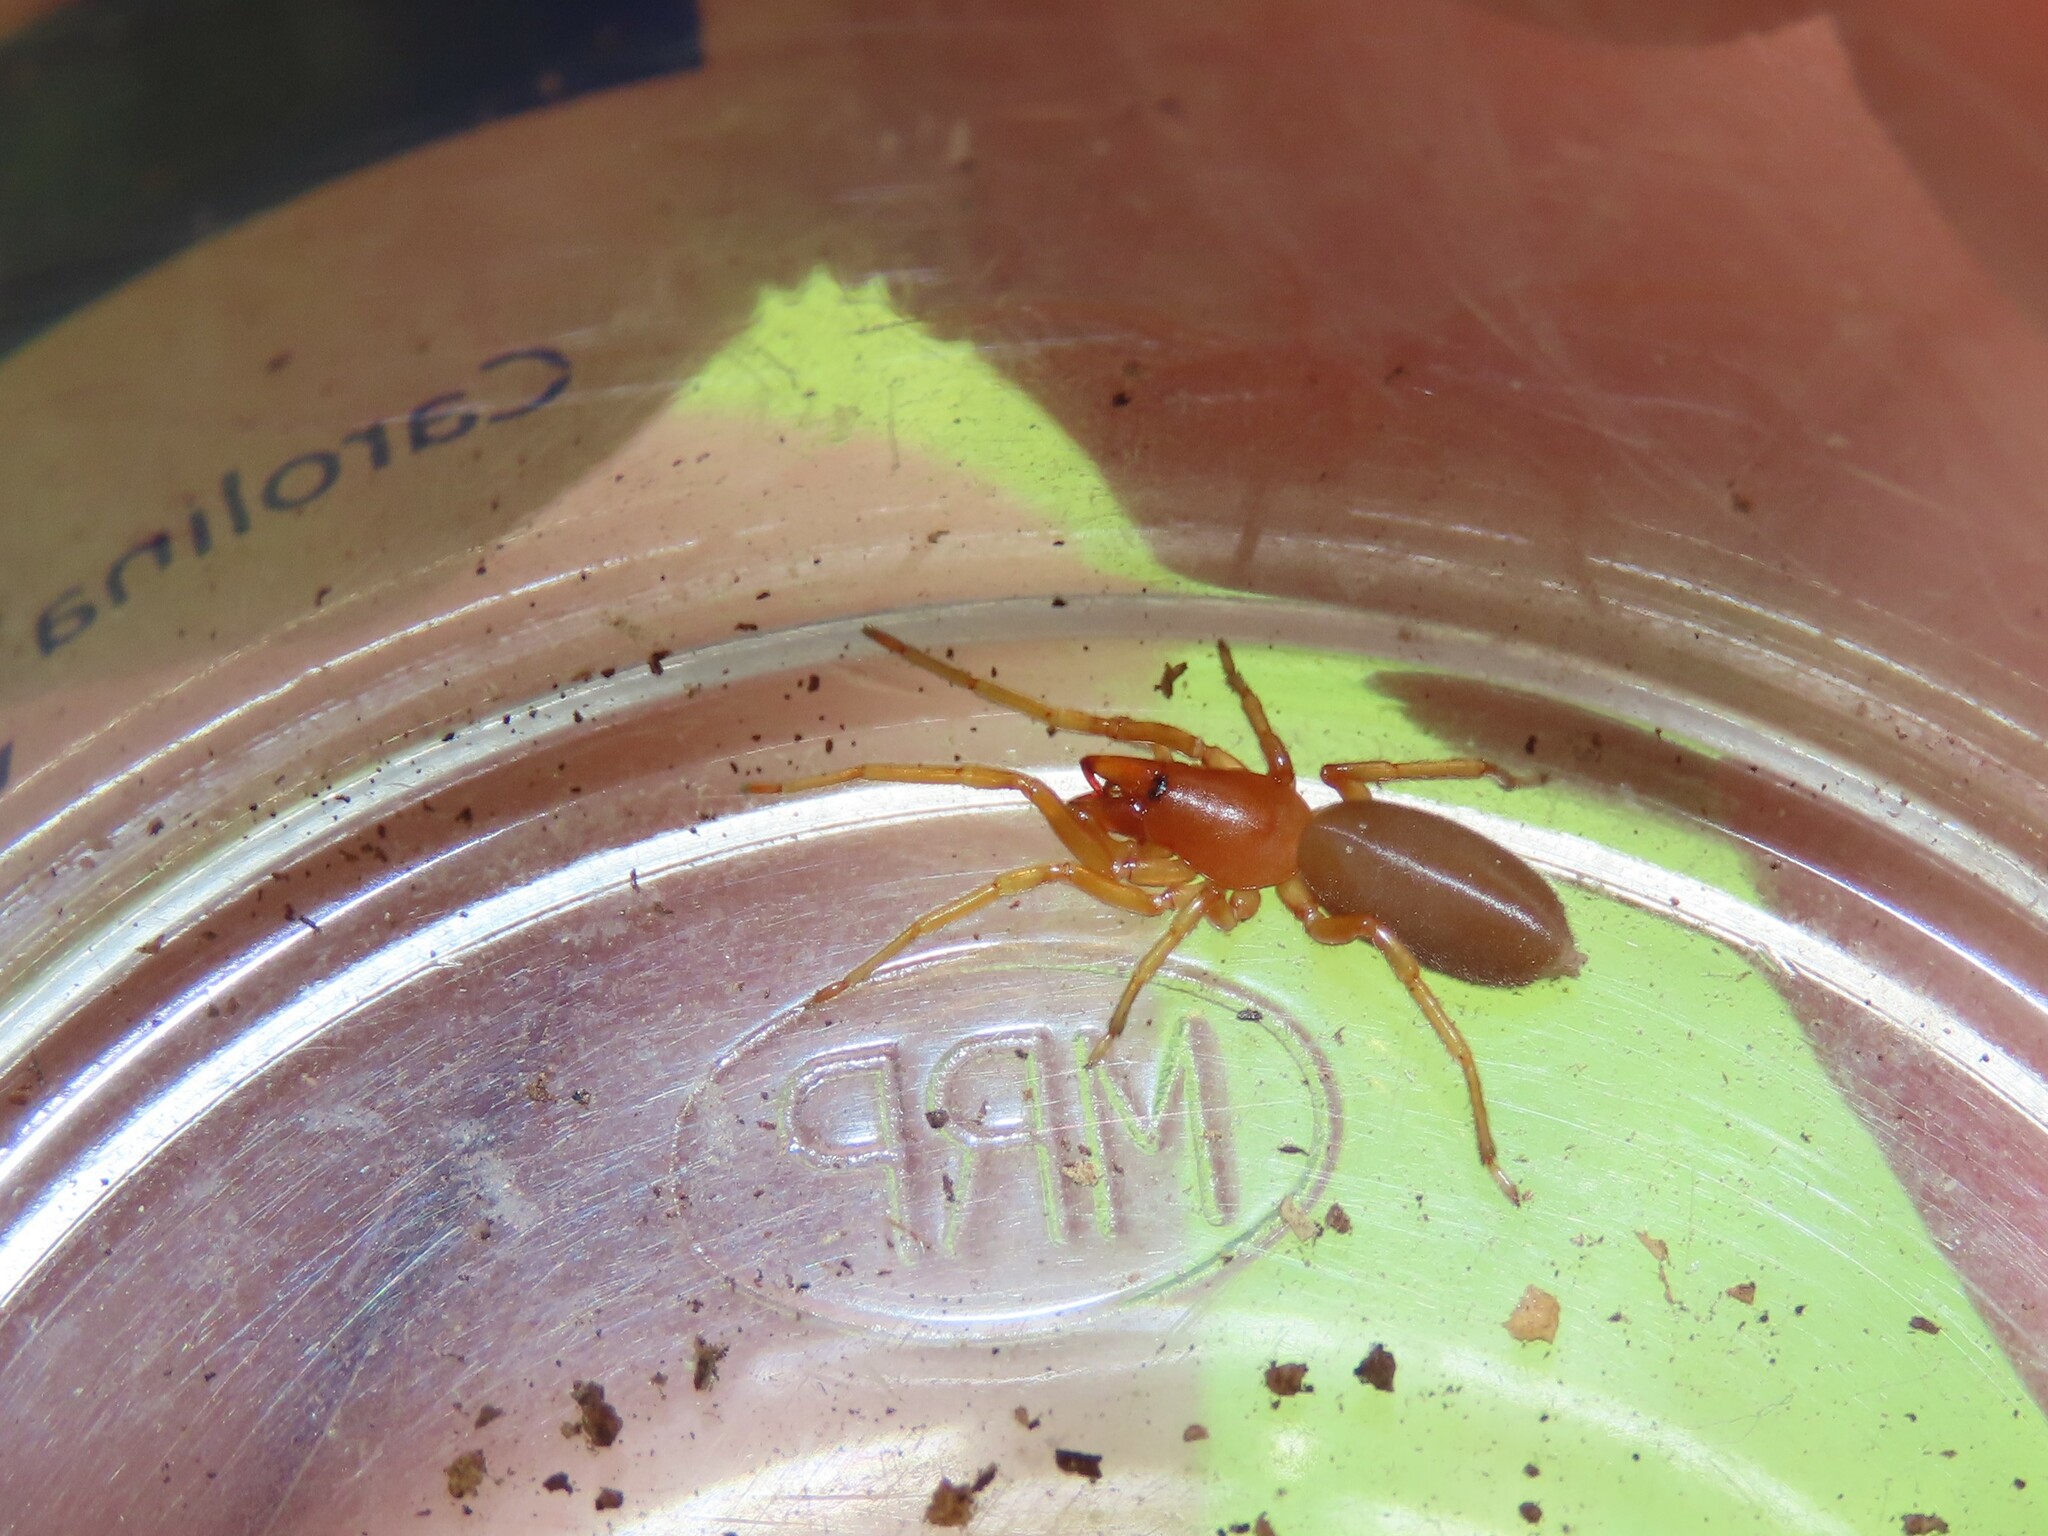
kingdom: Animalia
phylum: Arthropoda
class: Arachnida
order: Araneae
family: Dysderidae
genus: Dysdera
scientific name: Dysdera crocata
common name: Woodlouse spider
